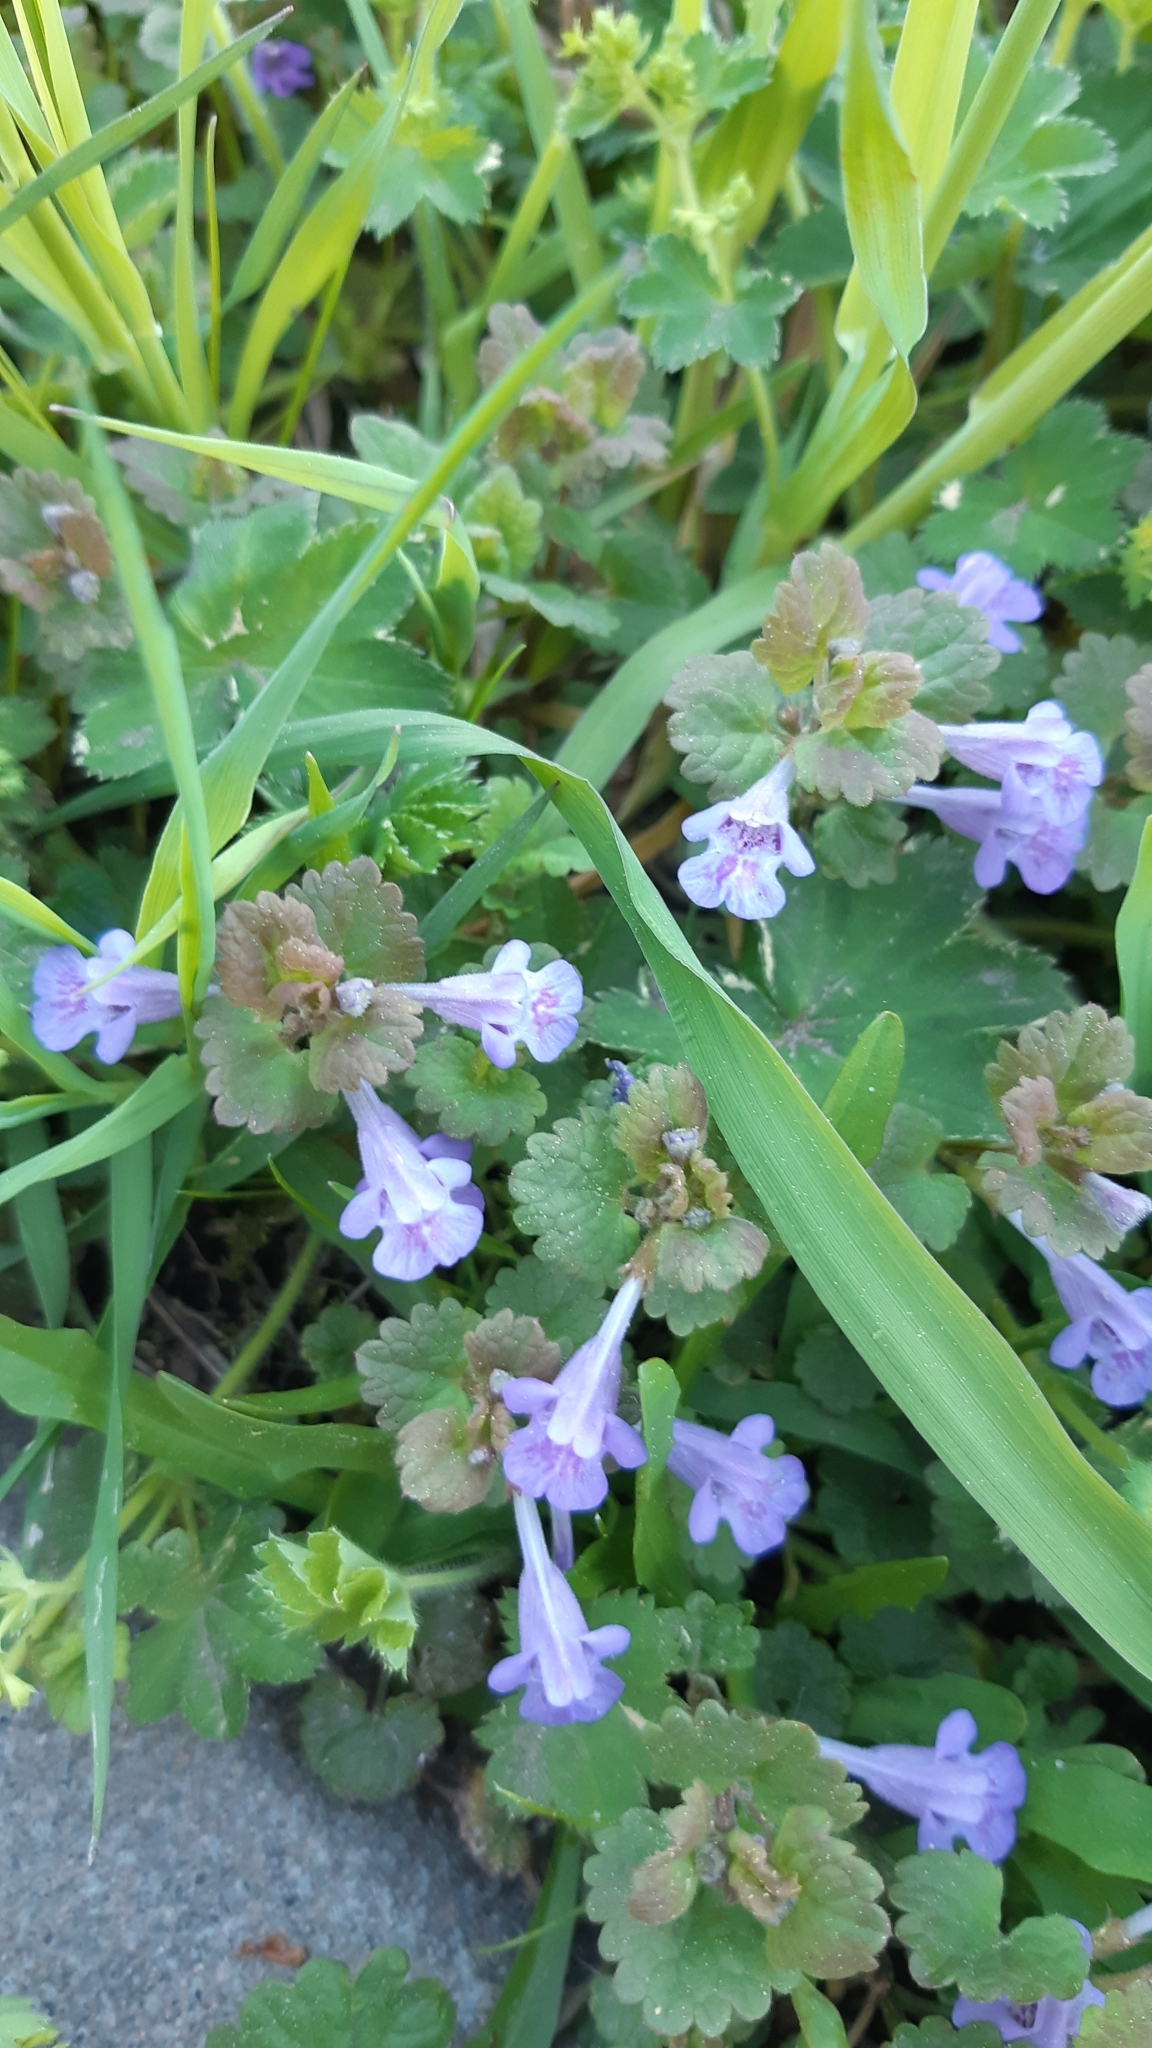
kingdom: Plantae
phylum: Tracheophyta
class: Magnoliopsida
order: Lamiales
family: Lamiaceae
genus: Glechoma
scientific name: Glechoma hederacea
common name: Ground ivy
